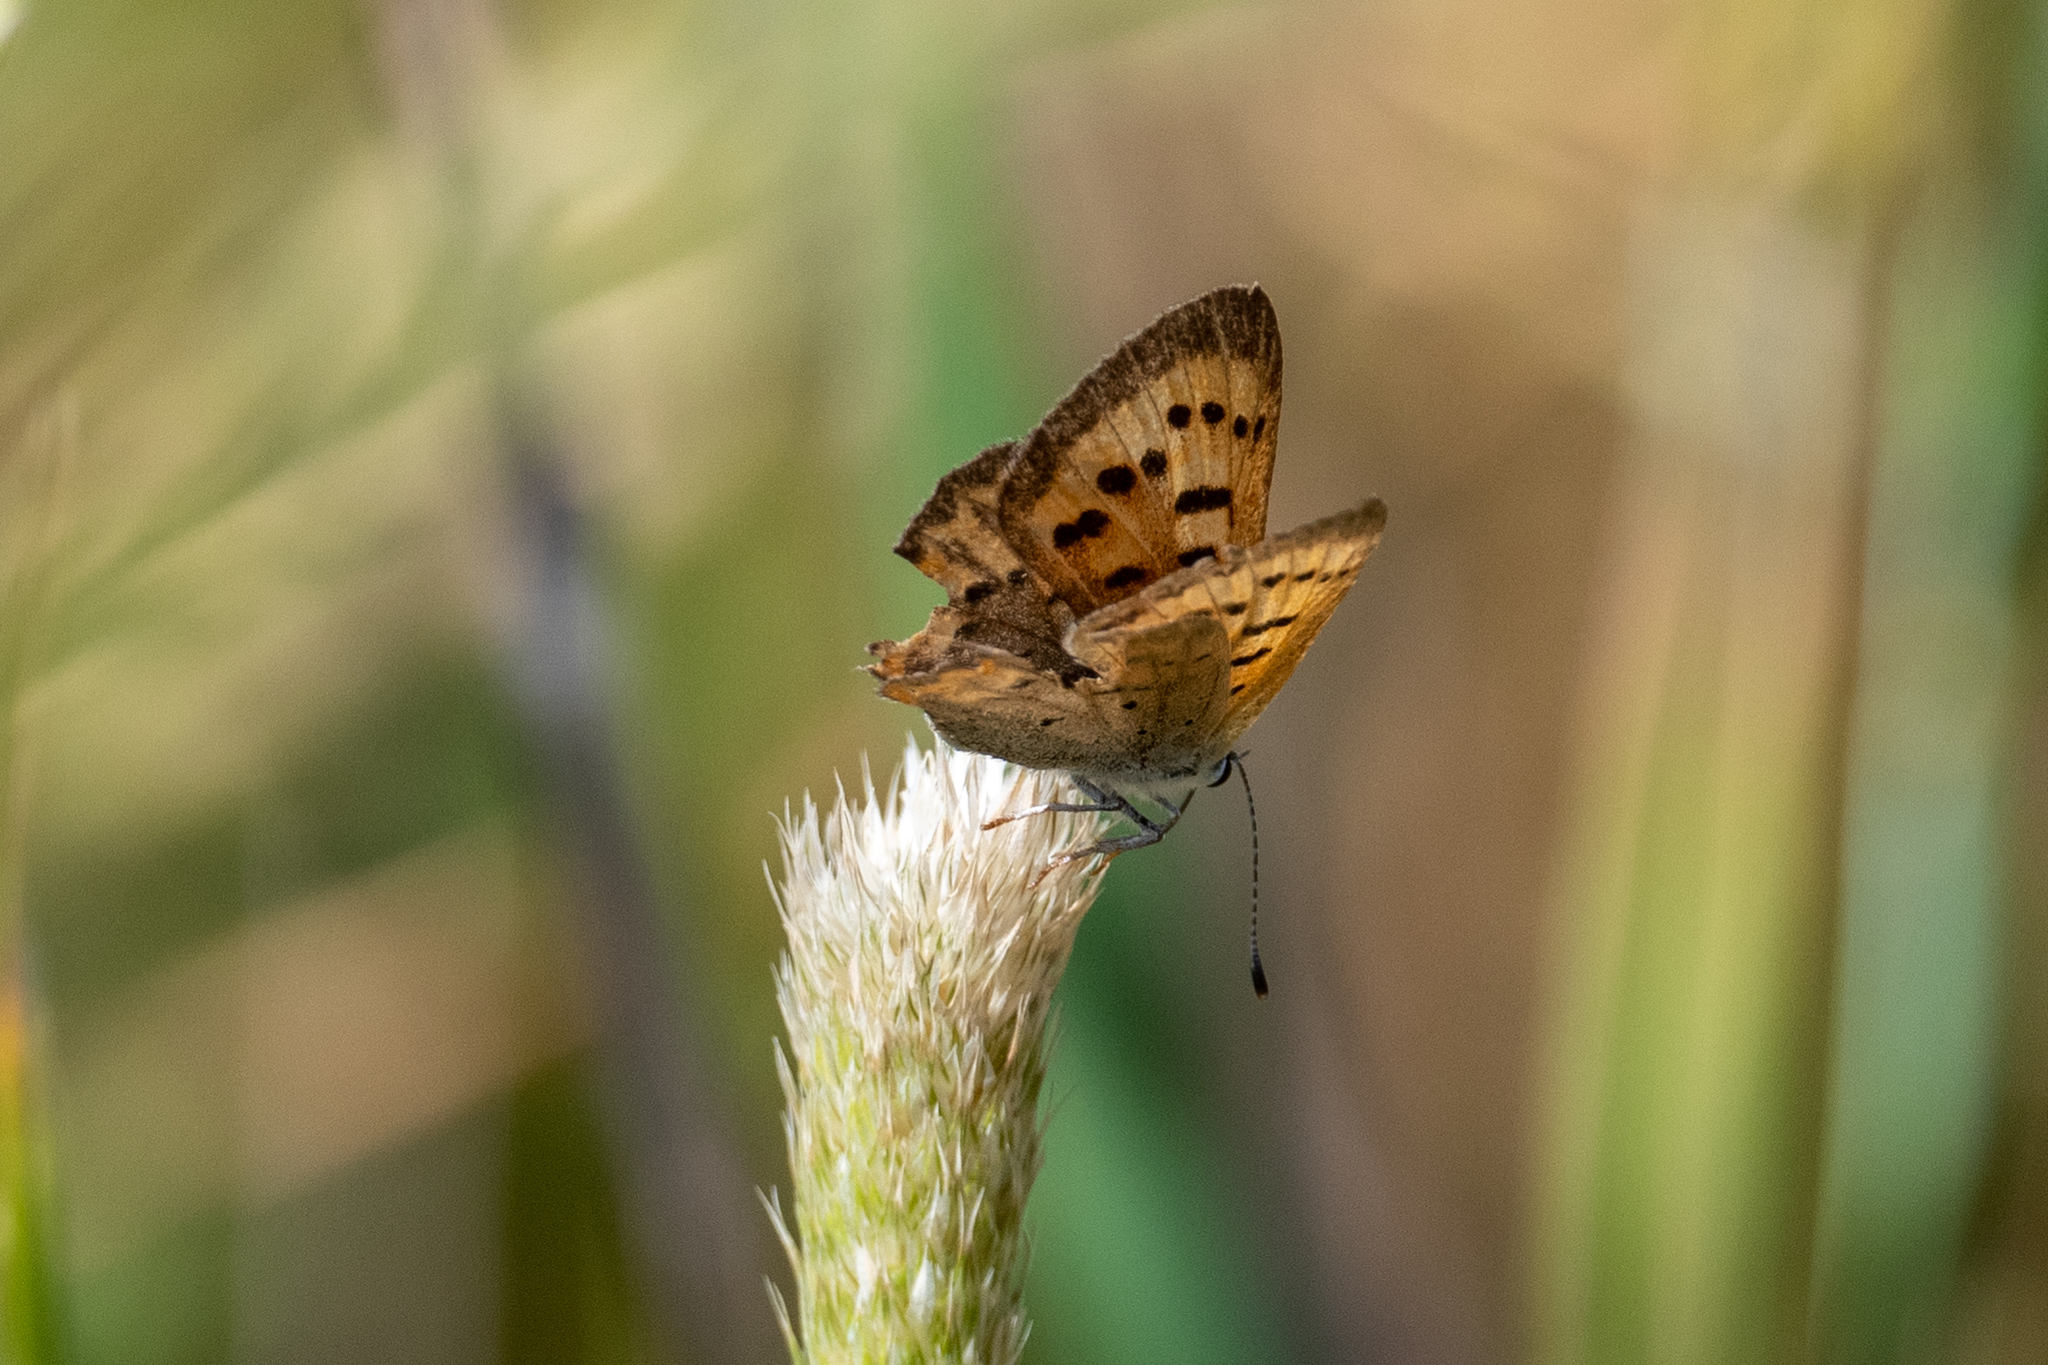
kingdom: Animalia
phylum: Arthropoda
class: Insecta
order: Lepidoptera
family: Lycaenidae
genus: Tharsalea
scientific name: Tharsalea helloides
